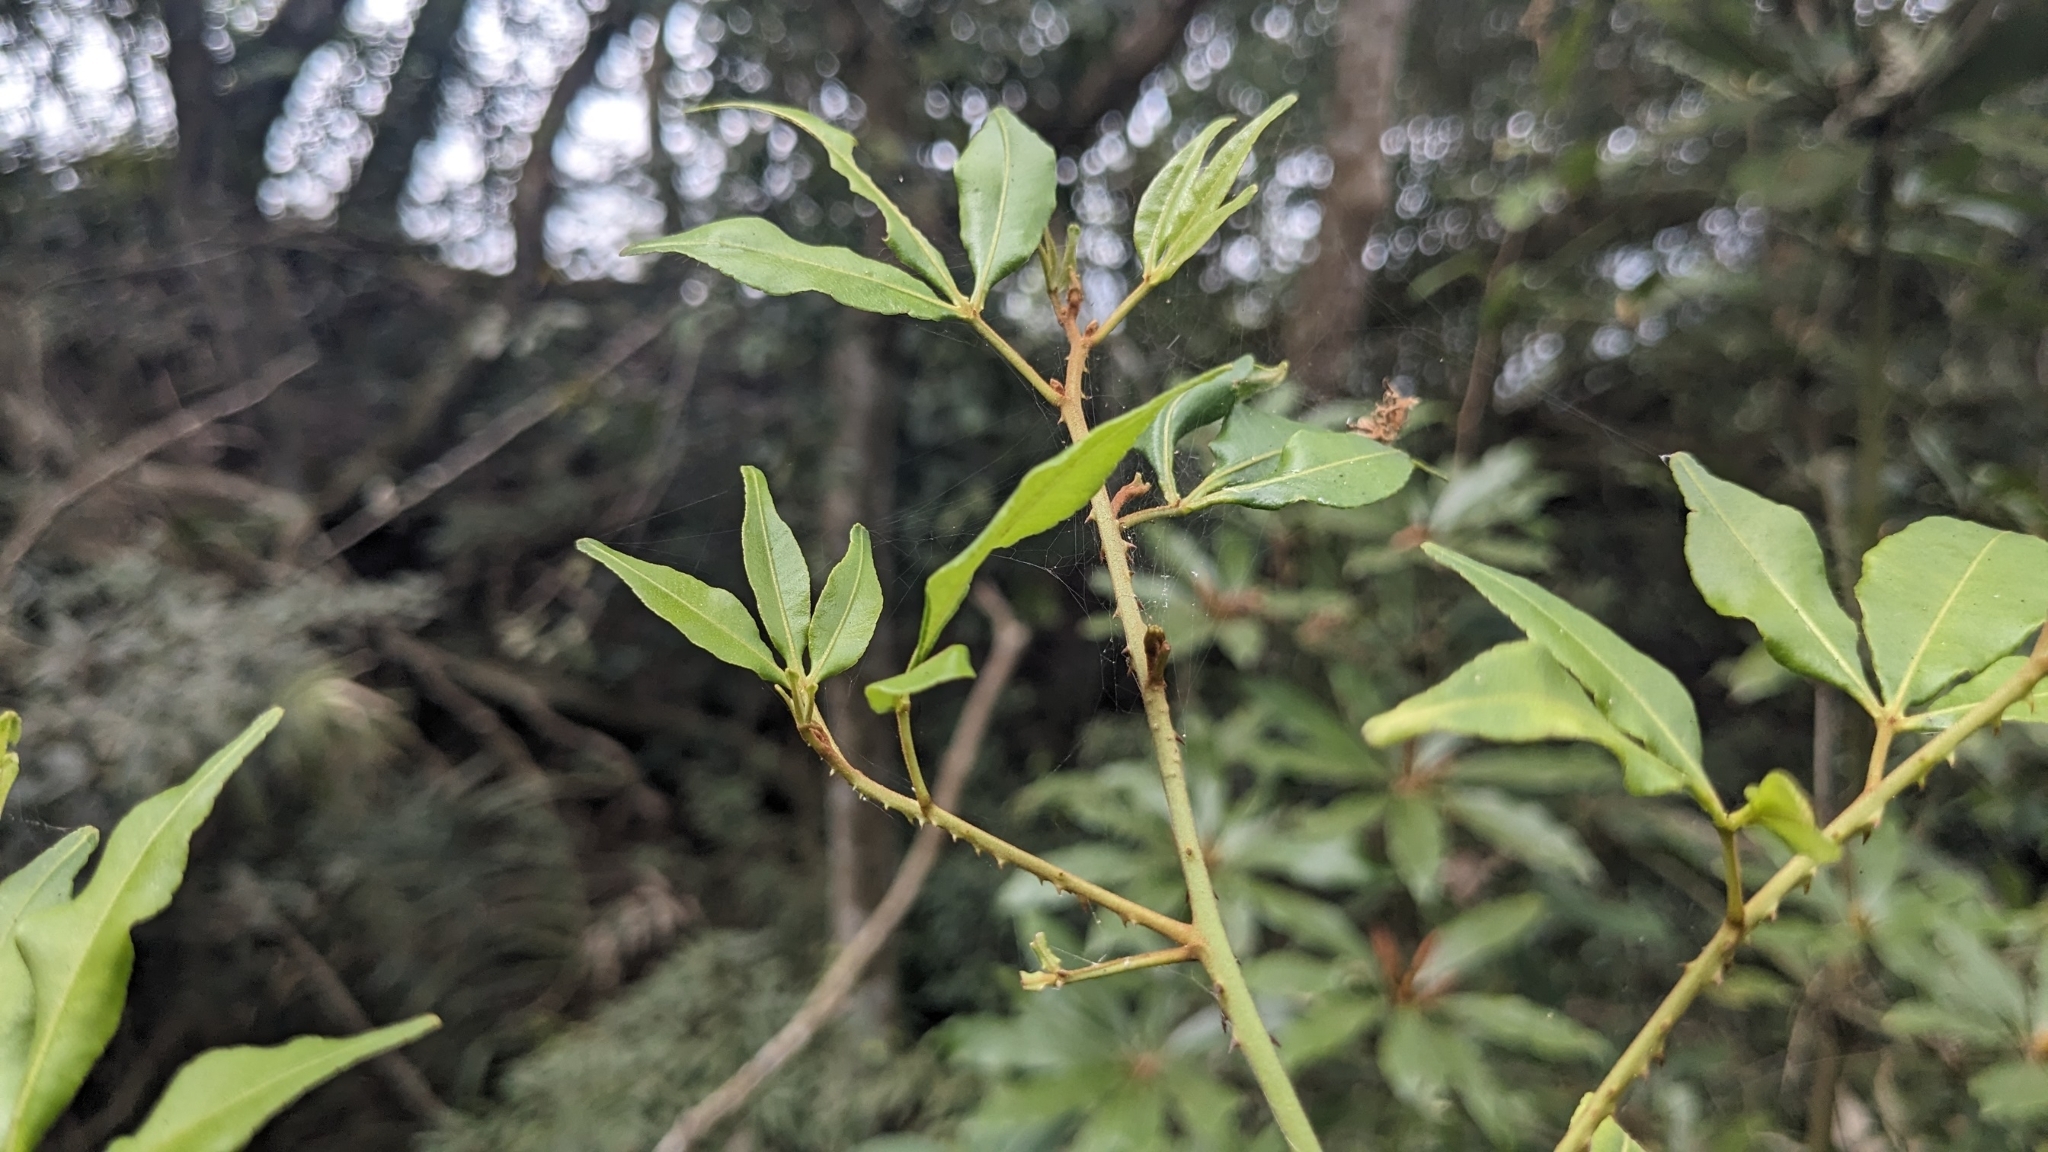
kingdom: Plantae
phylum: Tracheophyta
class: Magnoliopsida
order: Sapindales
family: Rutaceae
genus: Zanthoxylum
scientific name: Zanthoxylum asiaticum
